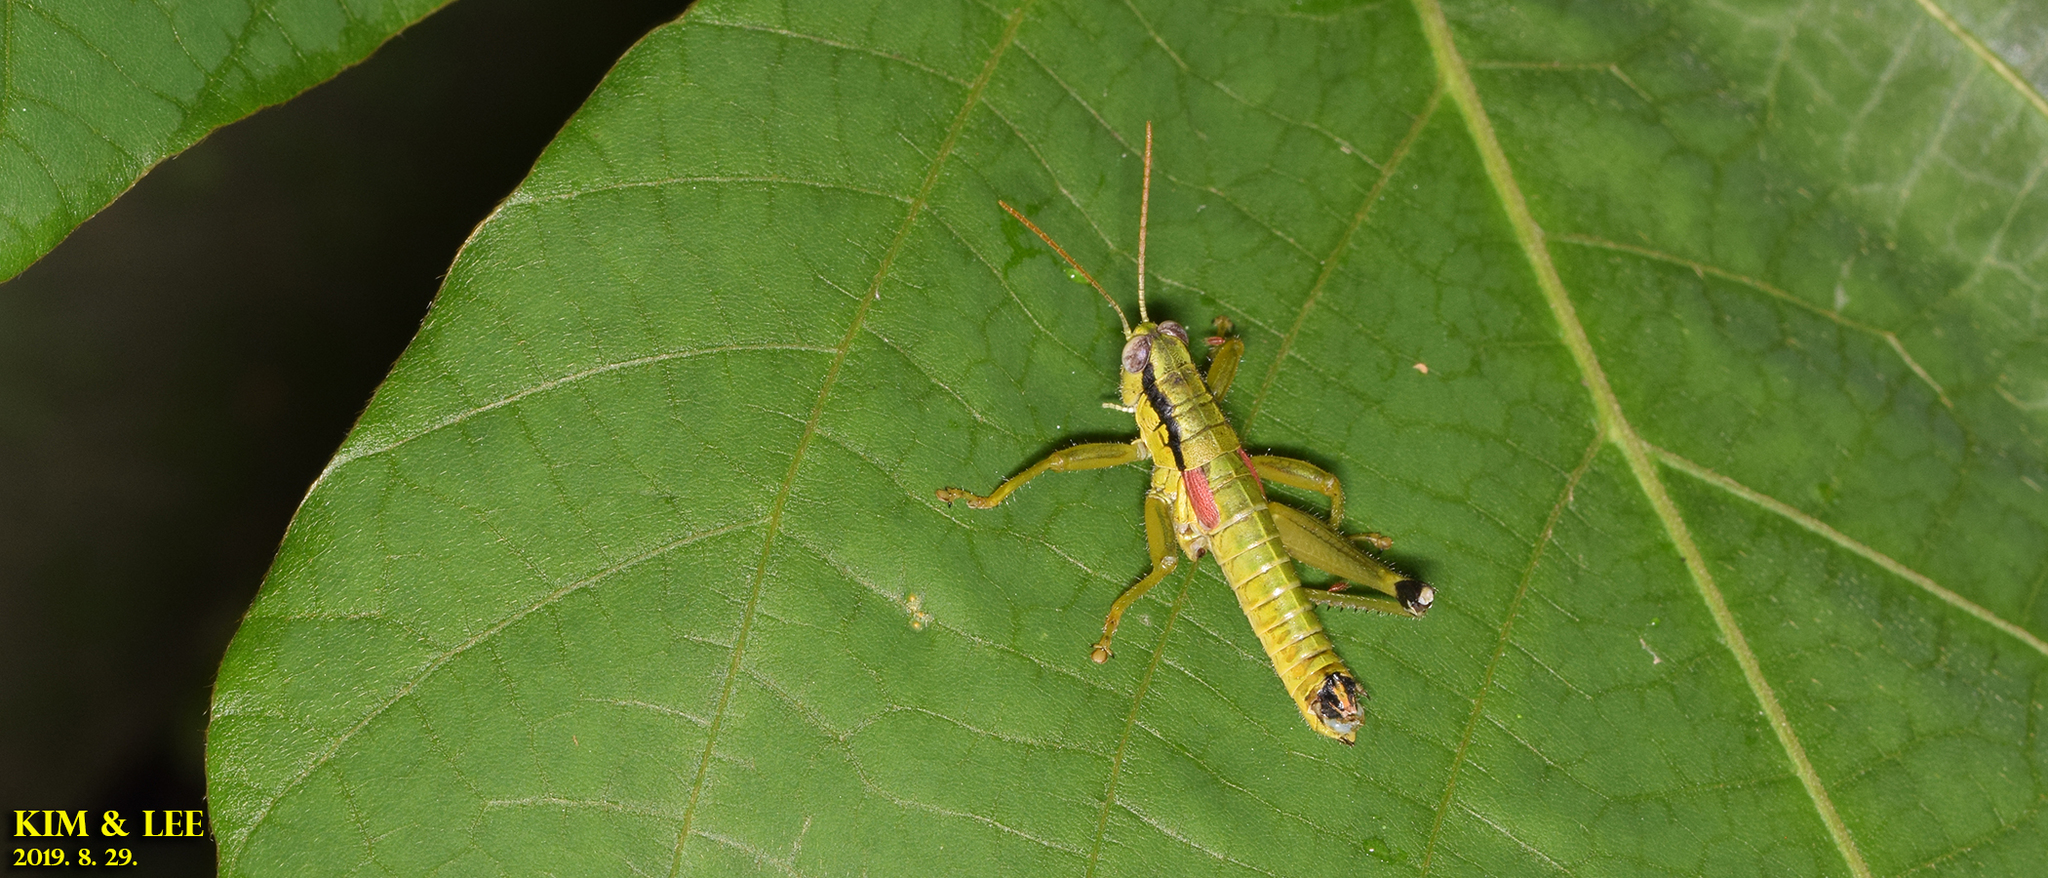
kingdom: Animalia
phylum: Arthropoda
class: Insecta
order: Orthoptera
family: Acrididae
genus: Anapodisma
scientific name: Anapodisma miramae
